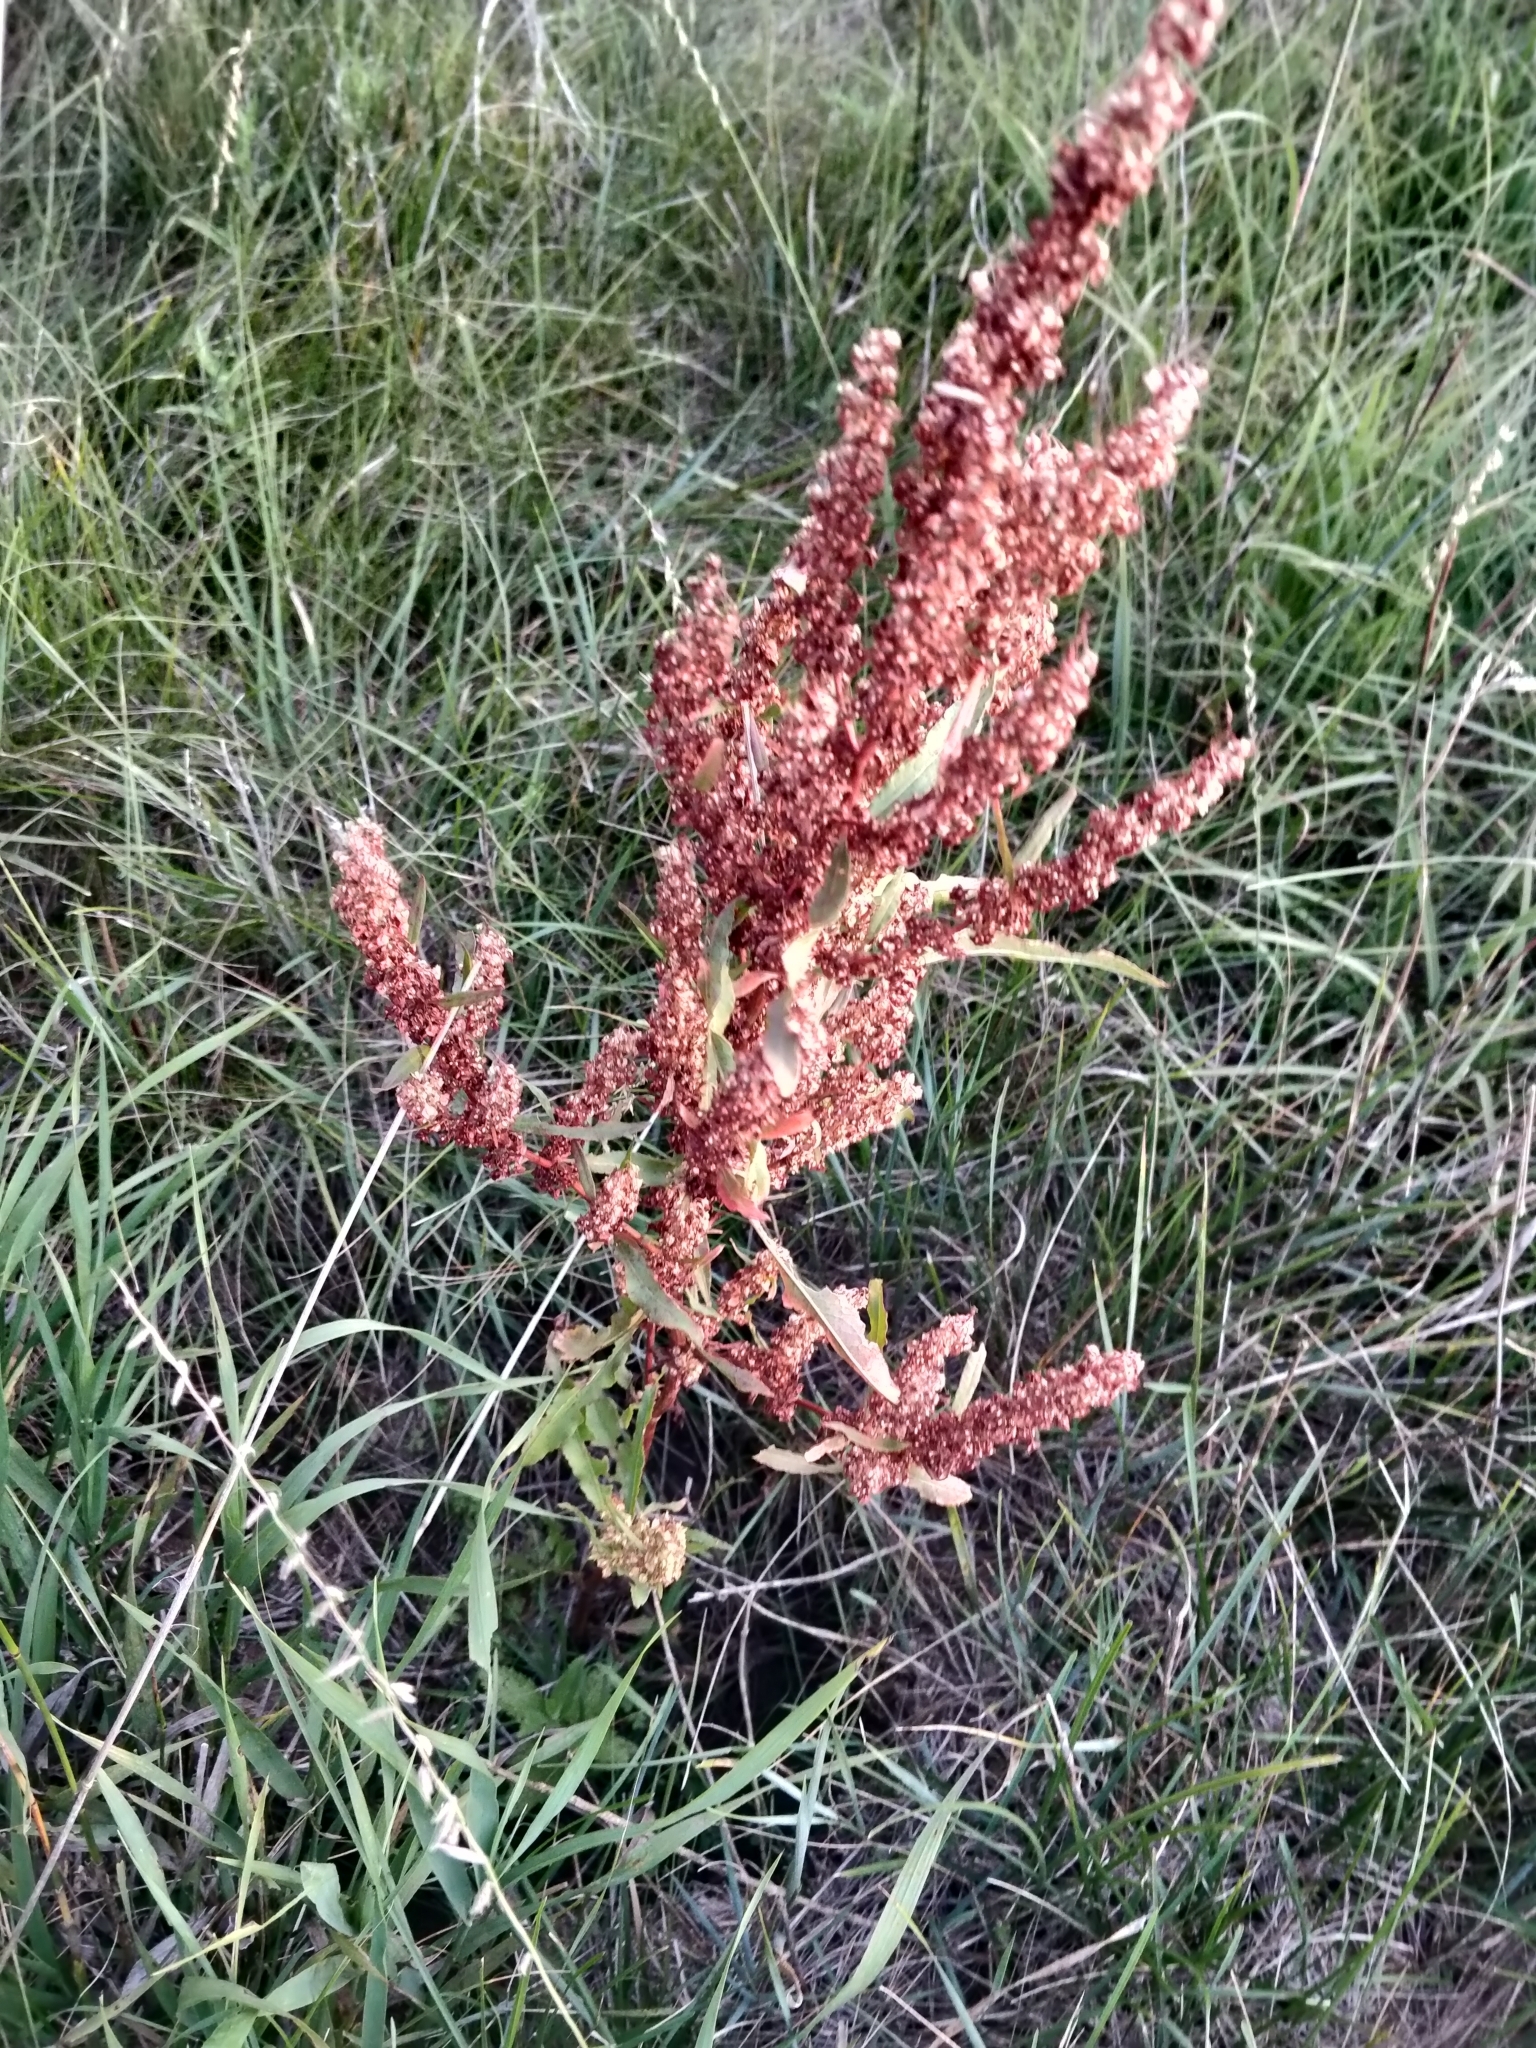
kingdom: Plantae
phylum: Tracheophyta
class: Magnoliopsida
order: Caryophyllales
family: Polygonaceae
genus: Rumex
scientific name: Rumex crispus
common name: Curled dock
